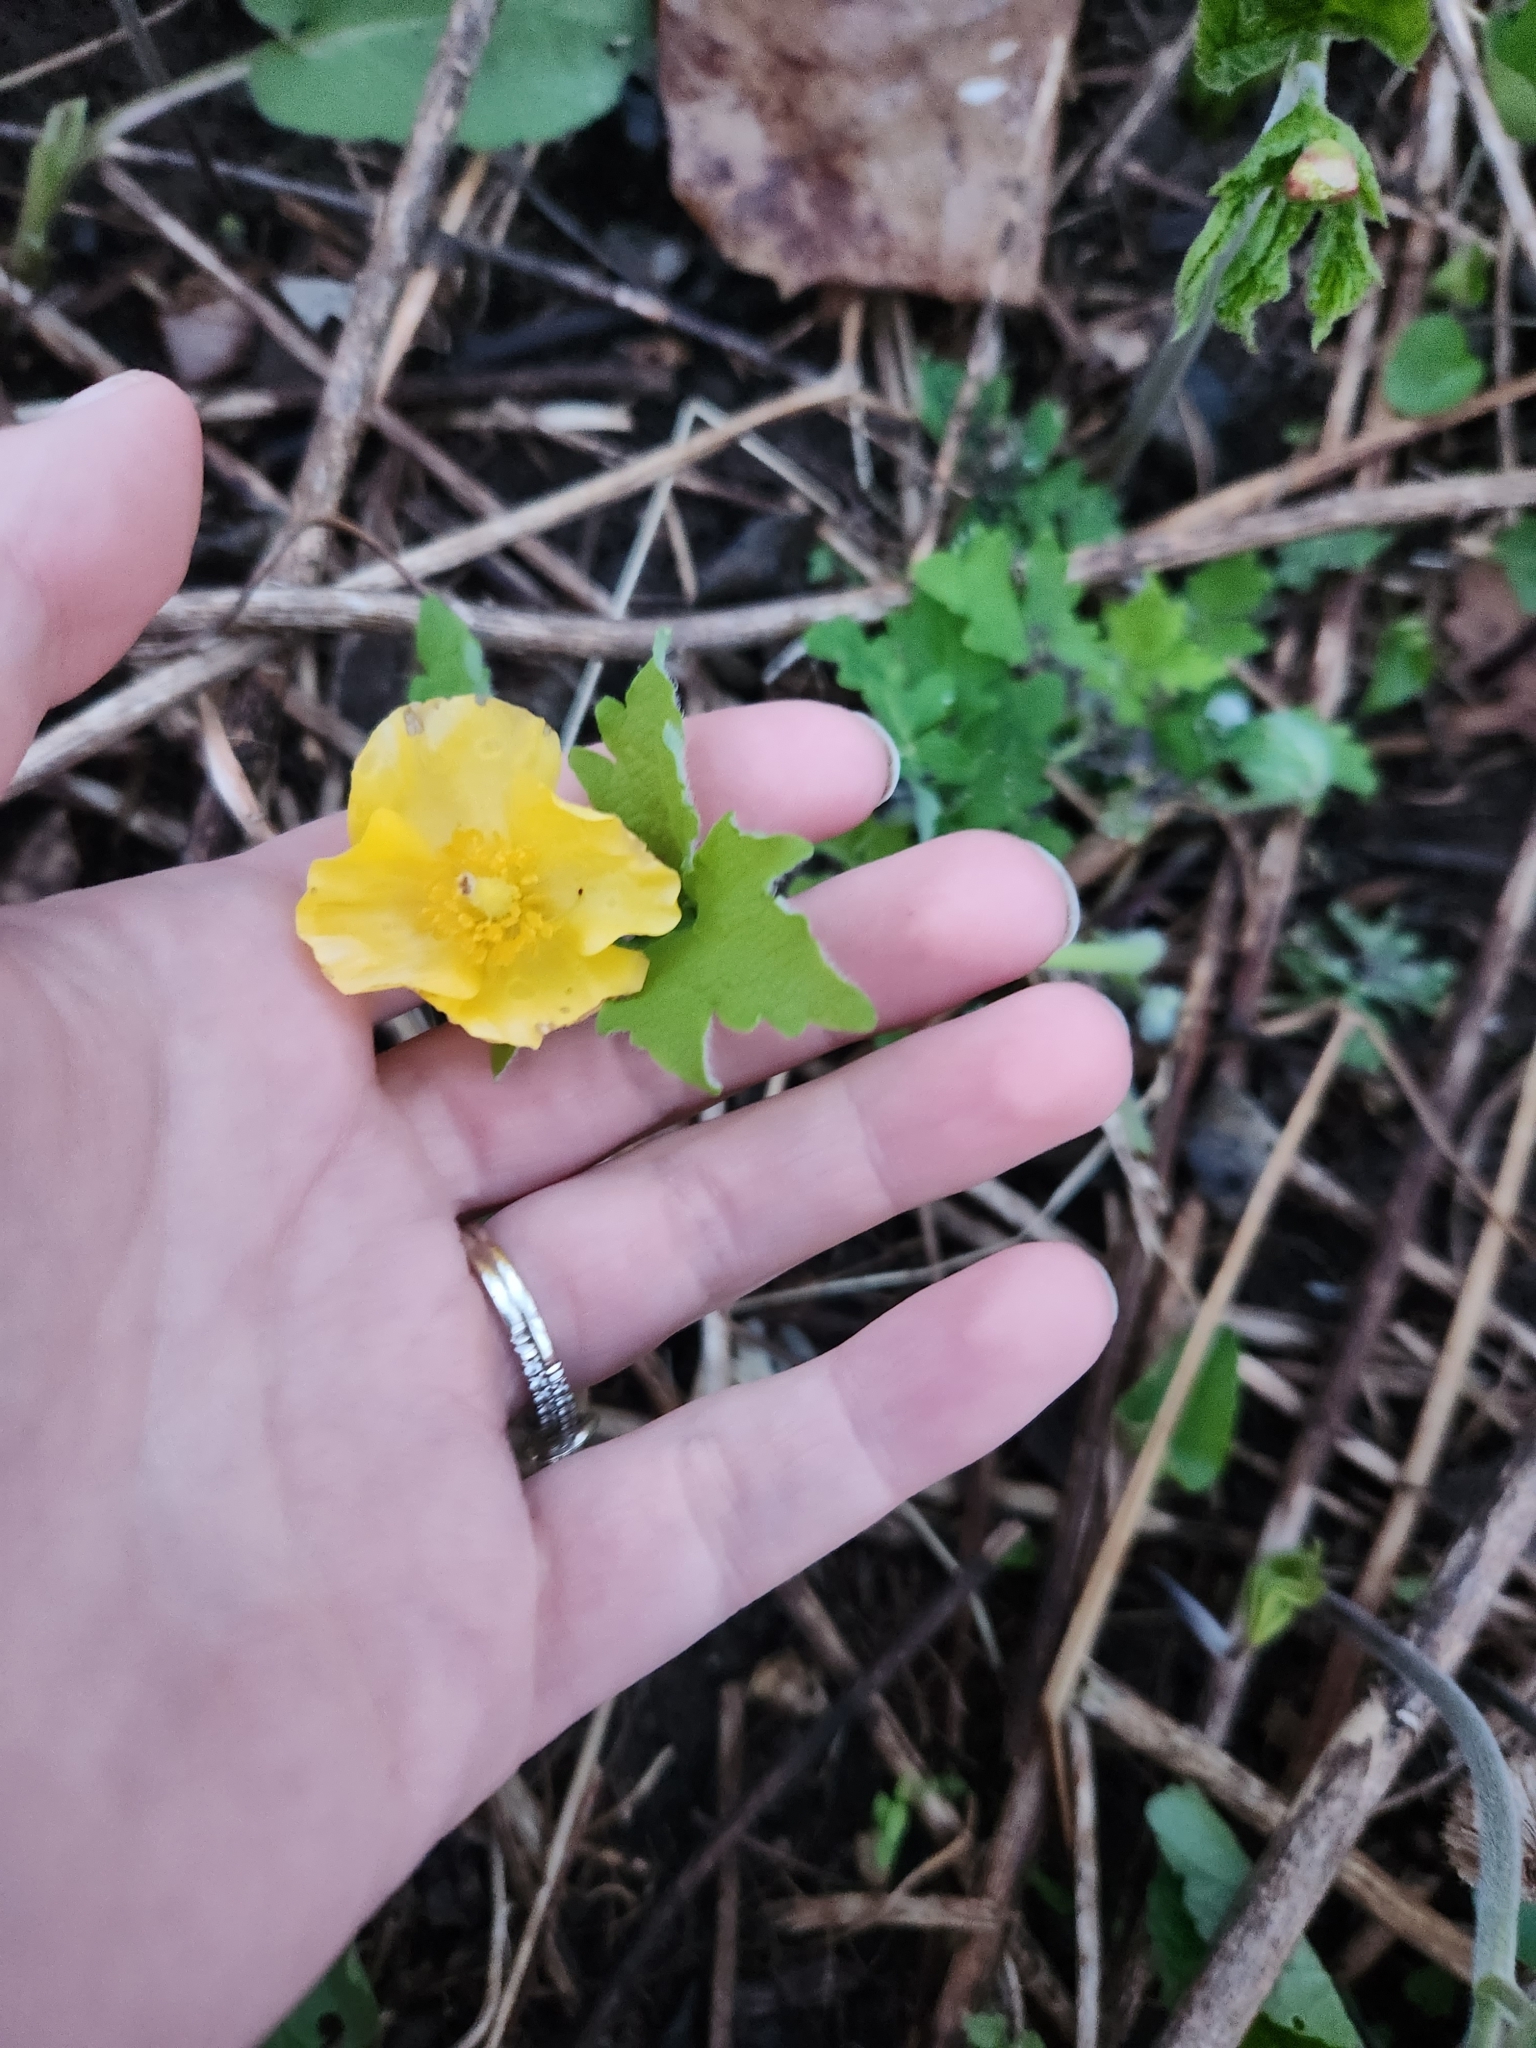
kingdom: Plantae
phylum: Tracheophyta
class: Magnoliopsida
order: Ranunculales
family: Papaveraceae
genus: Stylophorum
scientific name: Stylophorum diphyllum
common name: Celandine poppy
